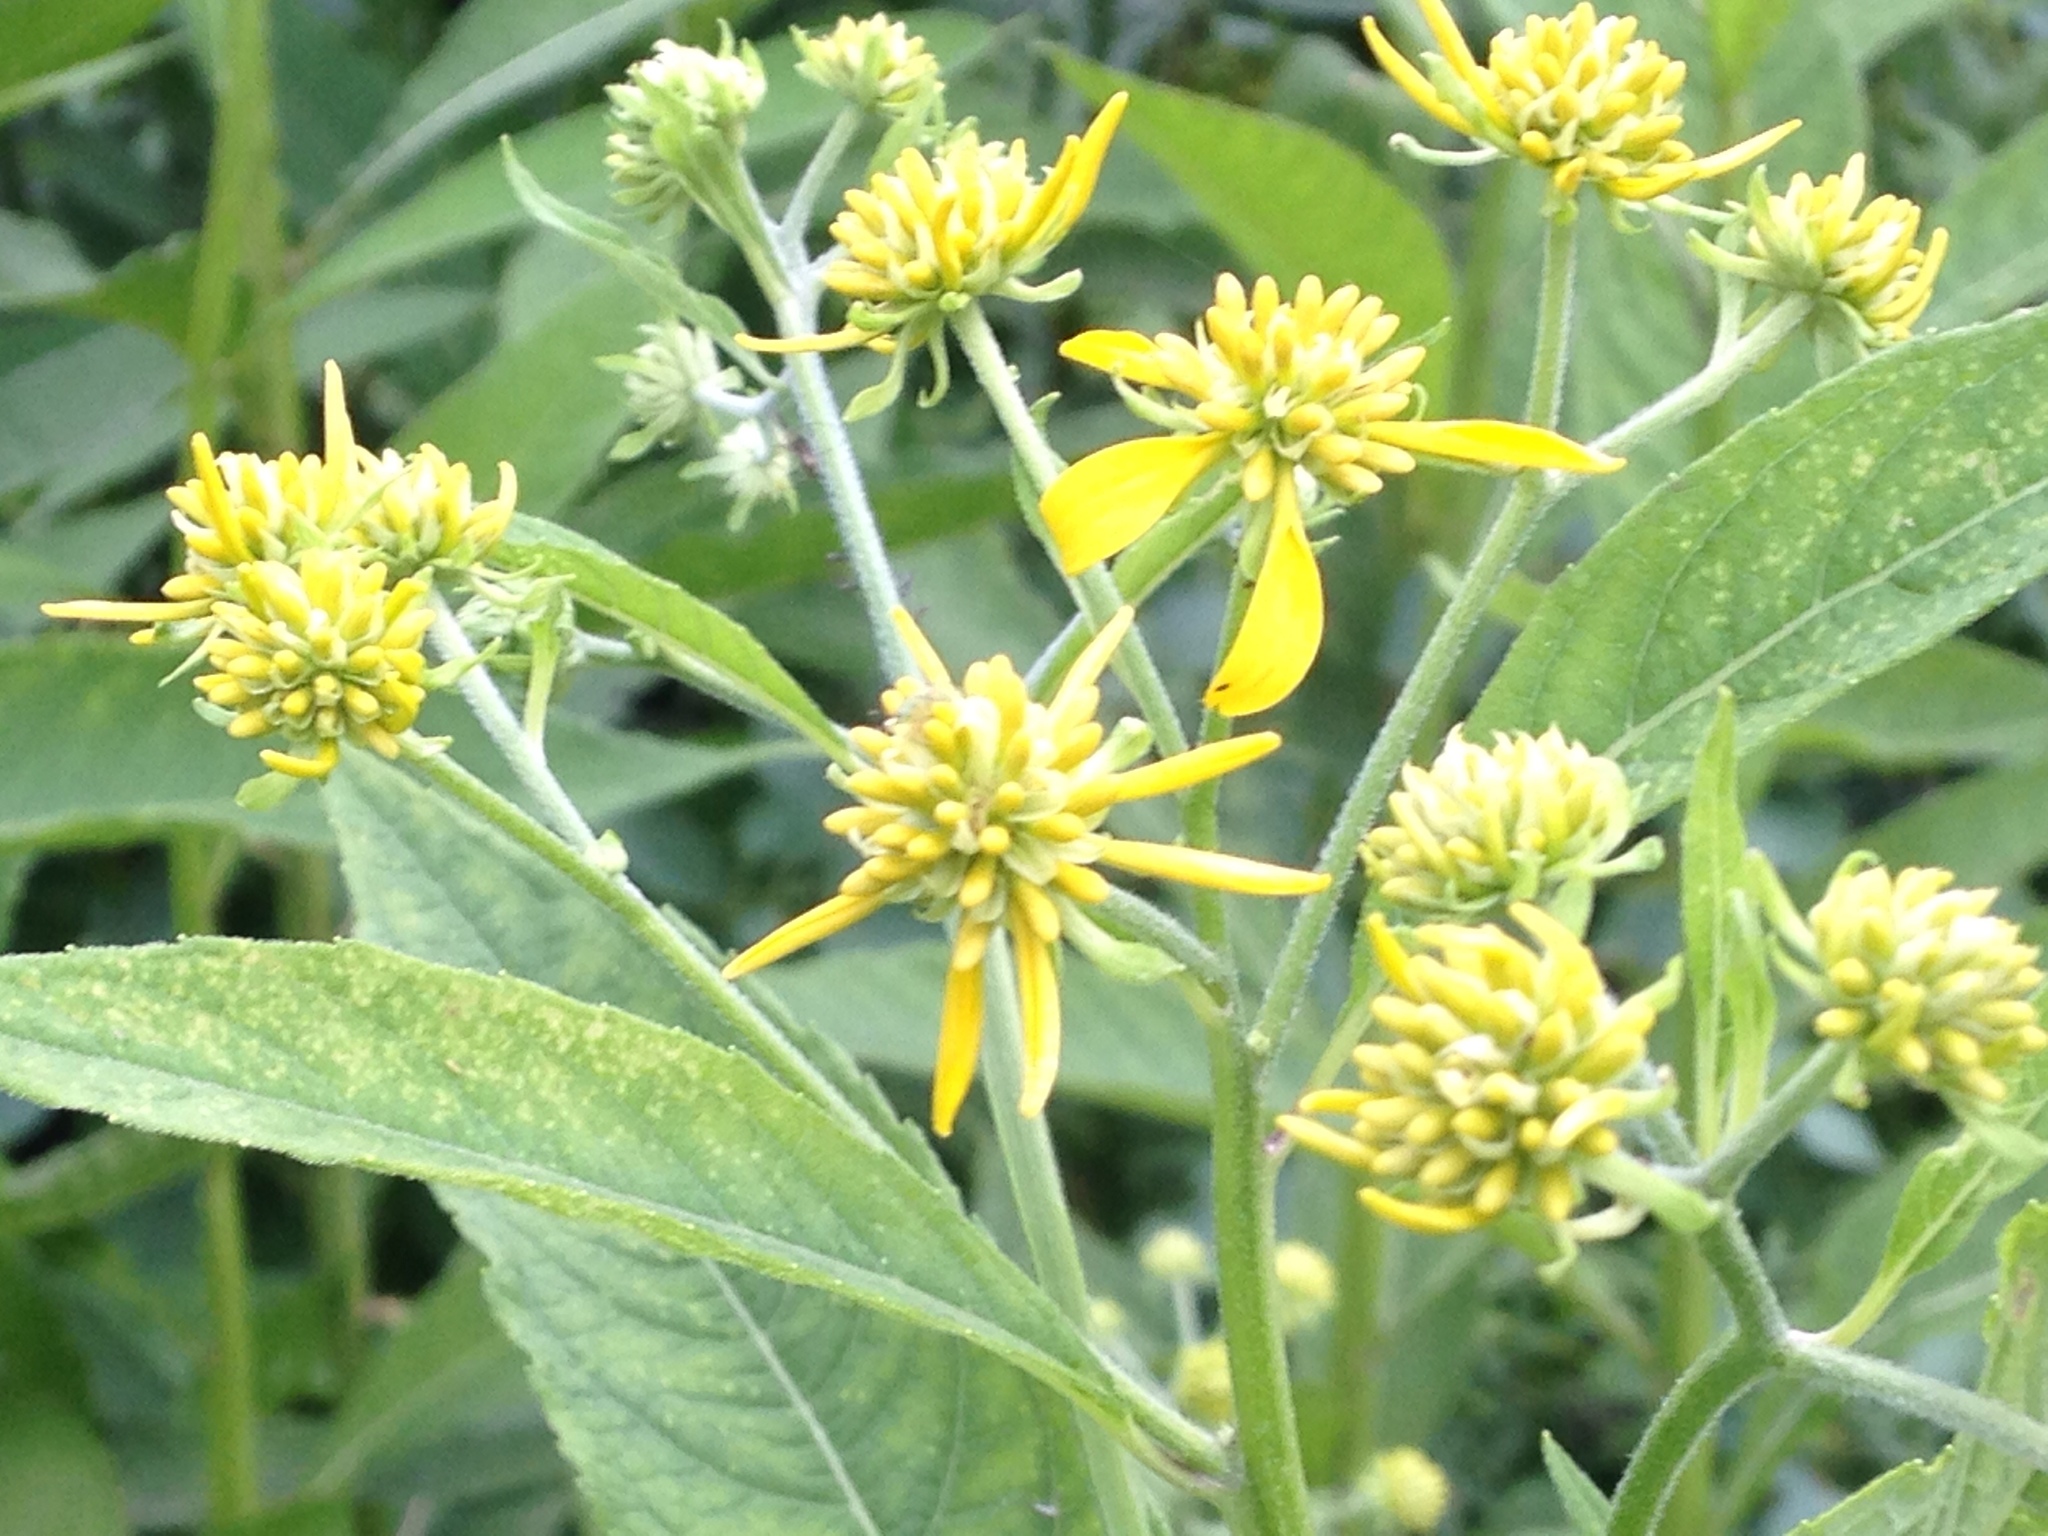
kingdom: Plantae
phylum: Tracheophyta
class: Magnoliopsida
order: Asterales
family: Asteraceae
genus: Verbesina
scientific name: Verbesina alternifolia
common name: Wingstem
